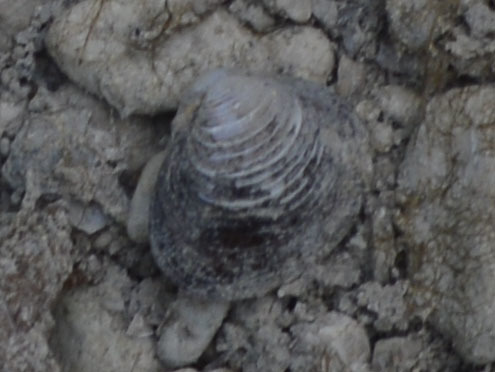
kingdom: Animalia
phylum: Mollusca
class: Bivalvia
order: Venerida
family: Cyrenidae
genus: Corbicula
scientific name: Corbicula fluminea
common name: Asian clam
